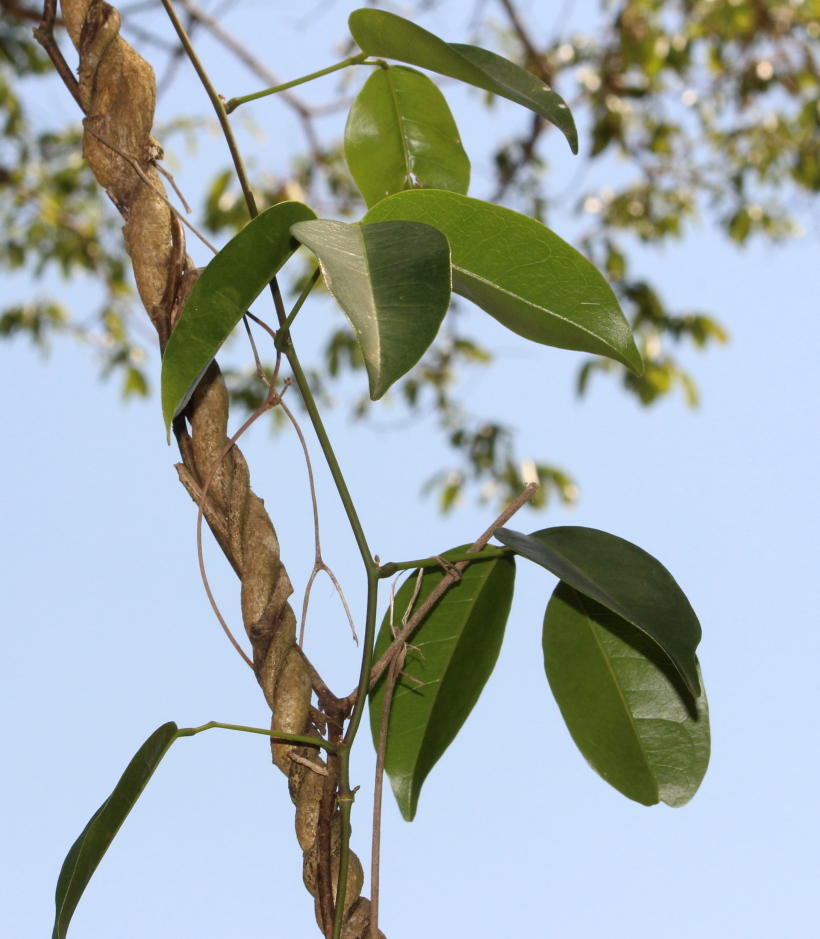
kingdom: Plantae
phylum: Tracheophyta
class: Magnoliopsida
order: Fabales
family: Fabaceae
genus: Canavalia
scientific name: Canavalia bonariensis
